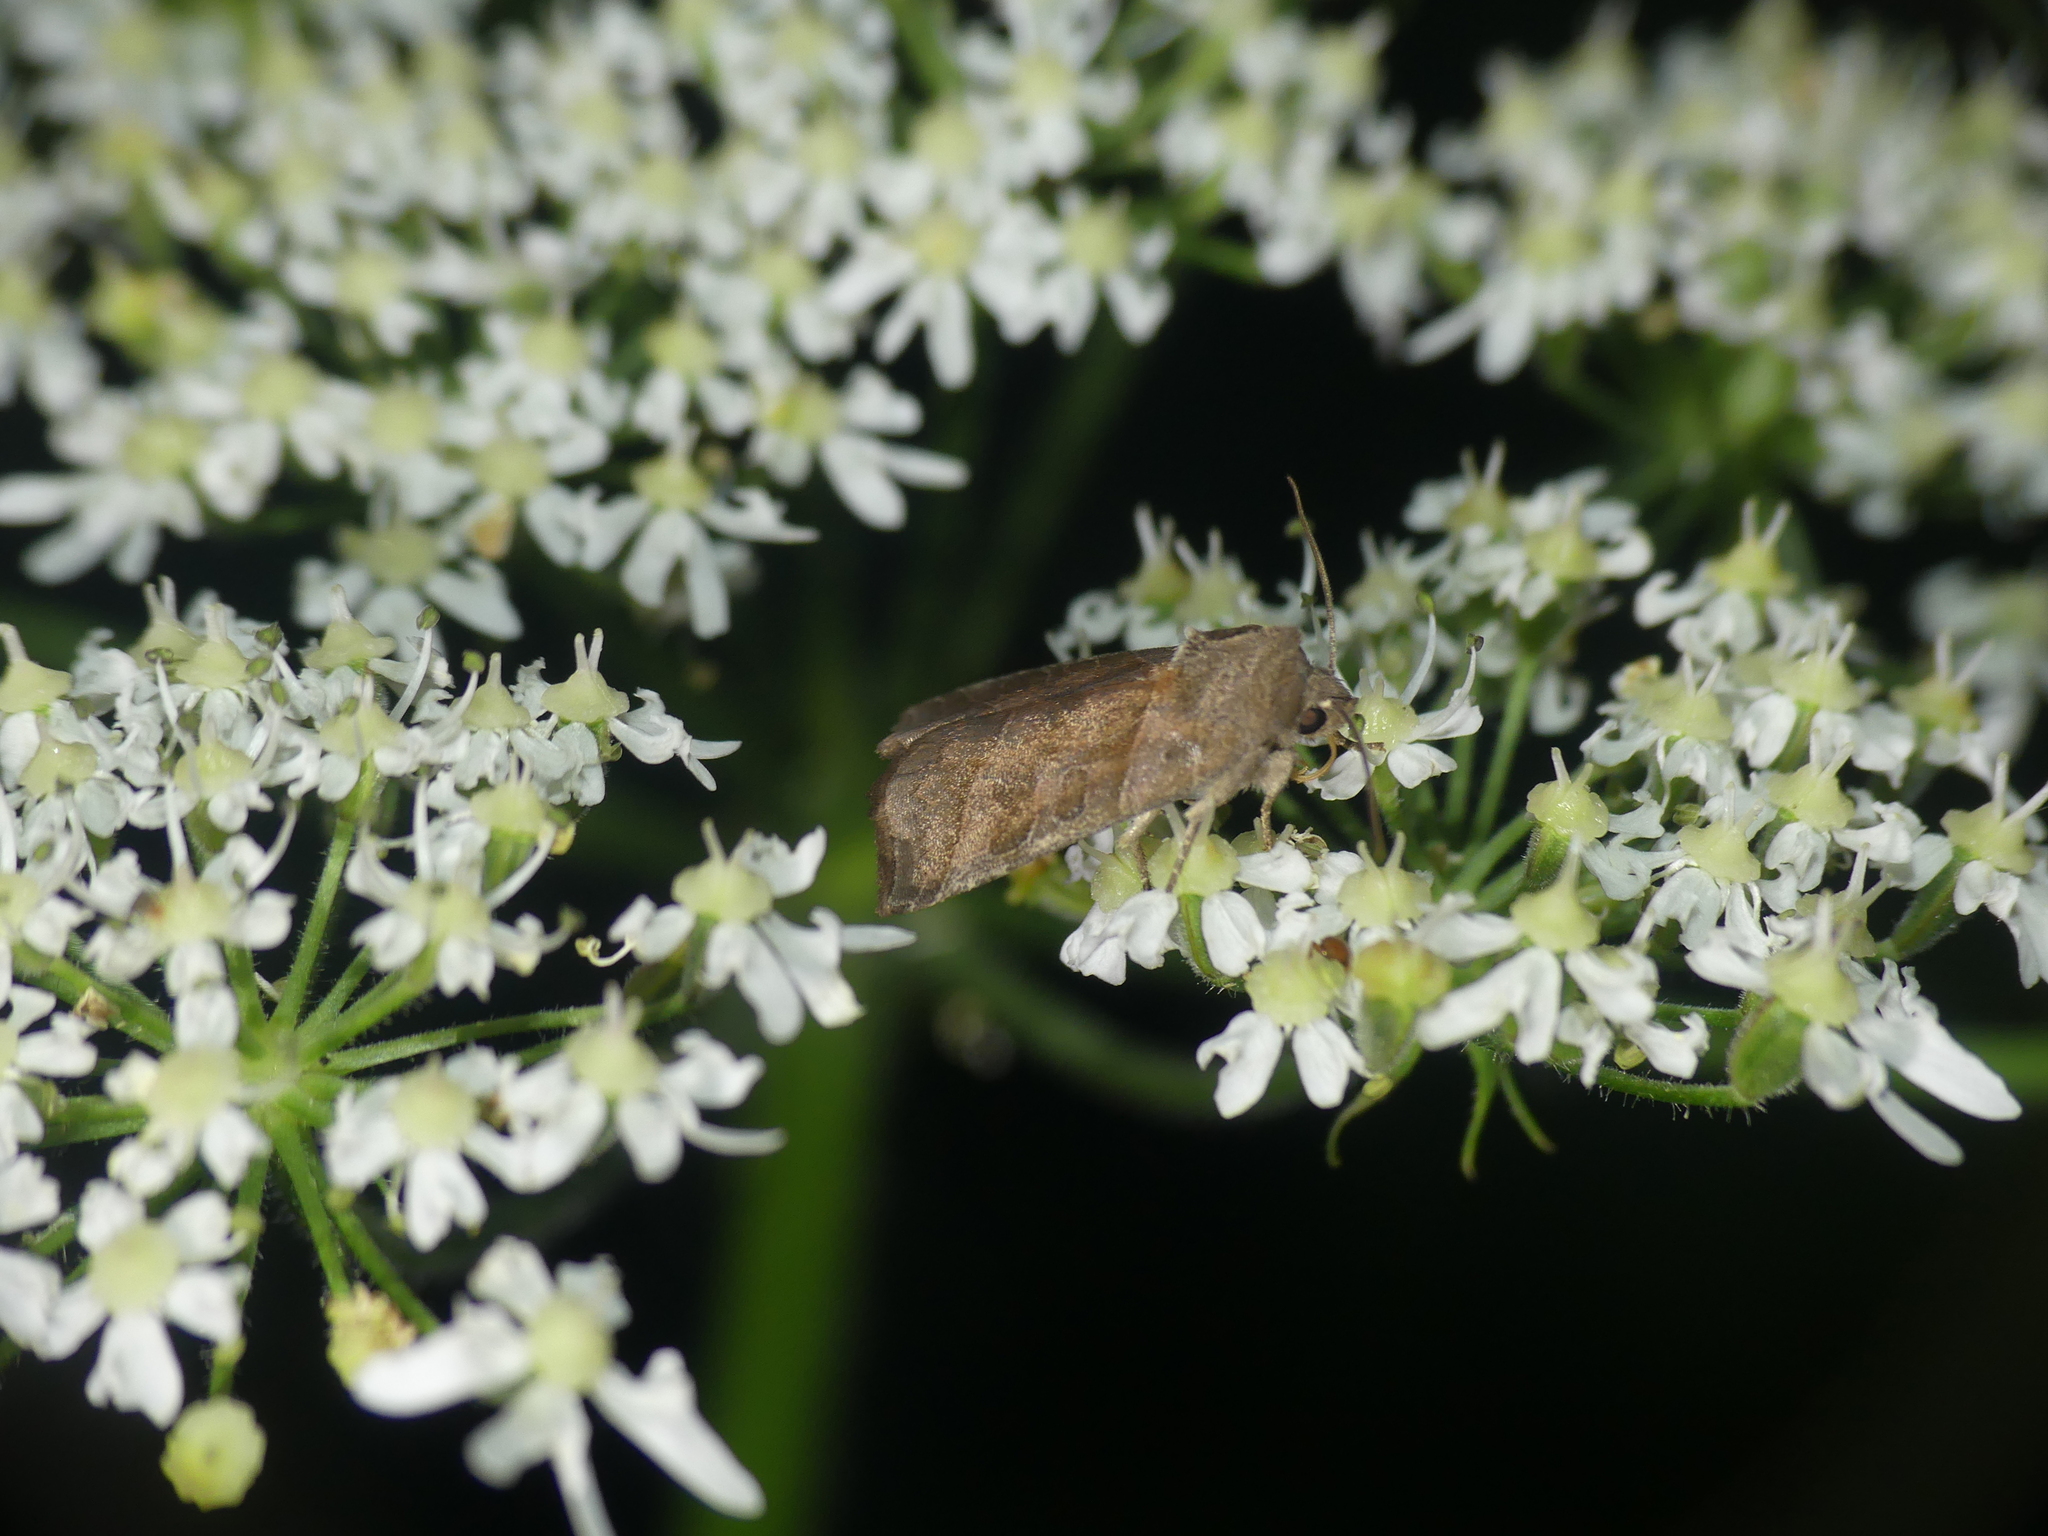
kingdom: Animalia
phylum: Arthropoda
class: Insecta
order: Lepidoptera
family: Noctuidae
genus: Ipimorpha
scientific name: Ipimorpha retusa
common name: Double kidney
